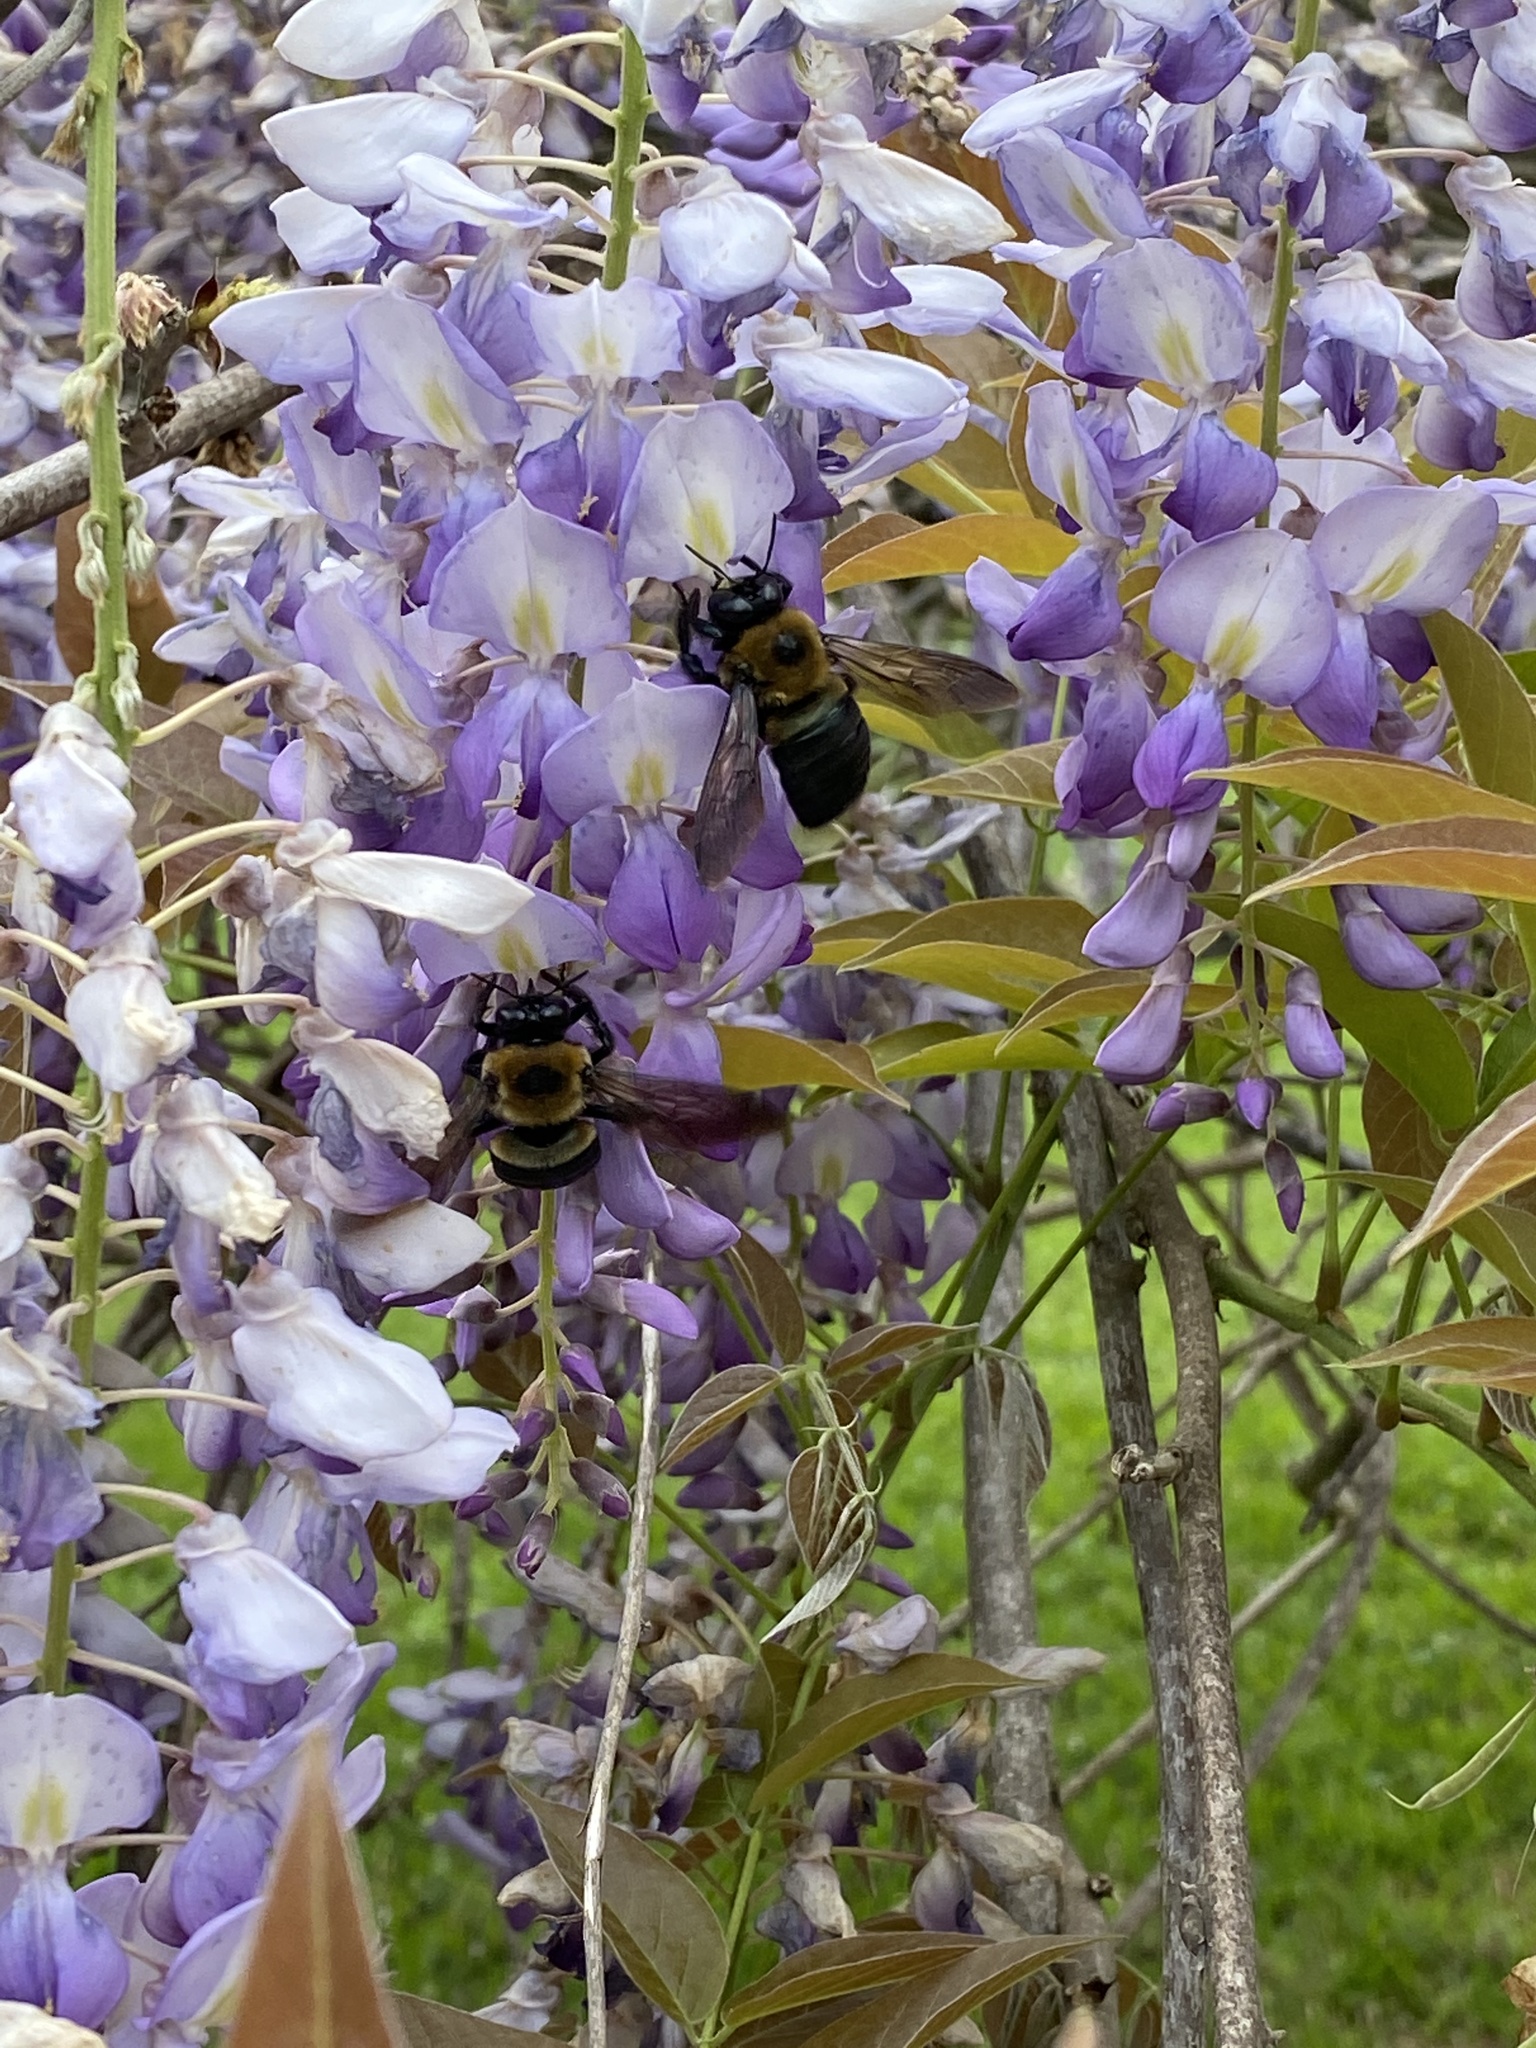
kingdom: Animalia
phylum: Arthropoda
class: Insecta
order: Hymenoptera
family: Apidae
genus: Xylocopa
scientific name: Xylocopa virginica
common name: Carpenter bee
